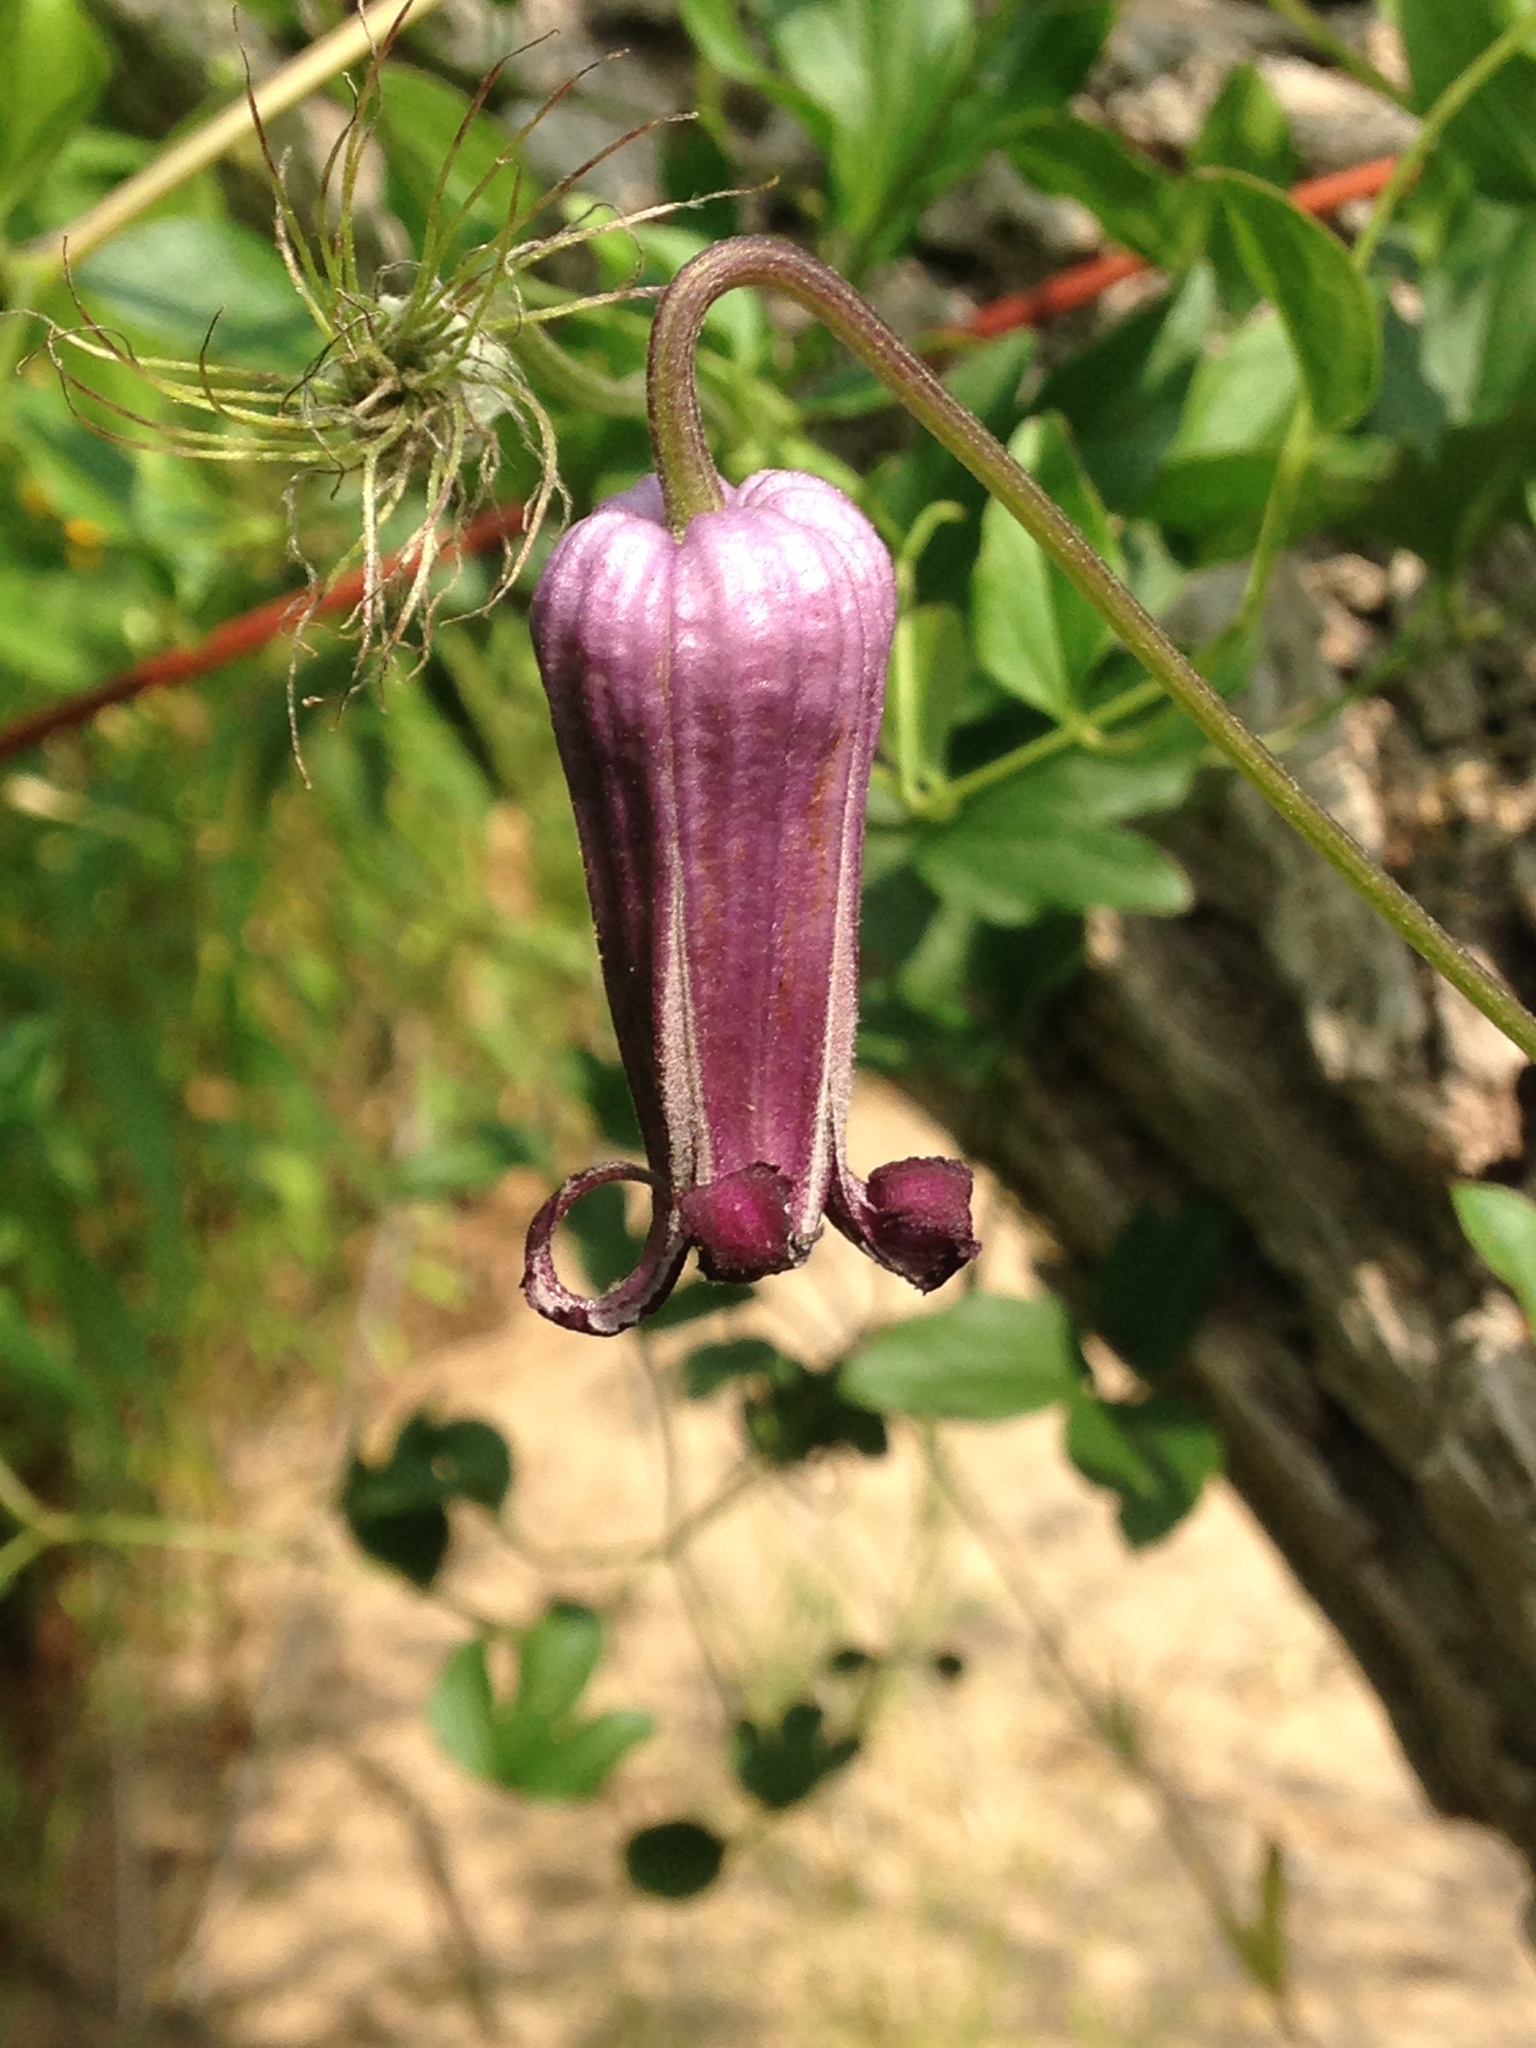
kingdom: Plantae
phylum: Tracheophyta
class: Magnoliopsida
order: Ranunculales
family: Ranunculaceae
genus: Clematis
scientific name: Clematis pitcheri
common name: Bellflower clematis
